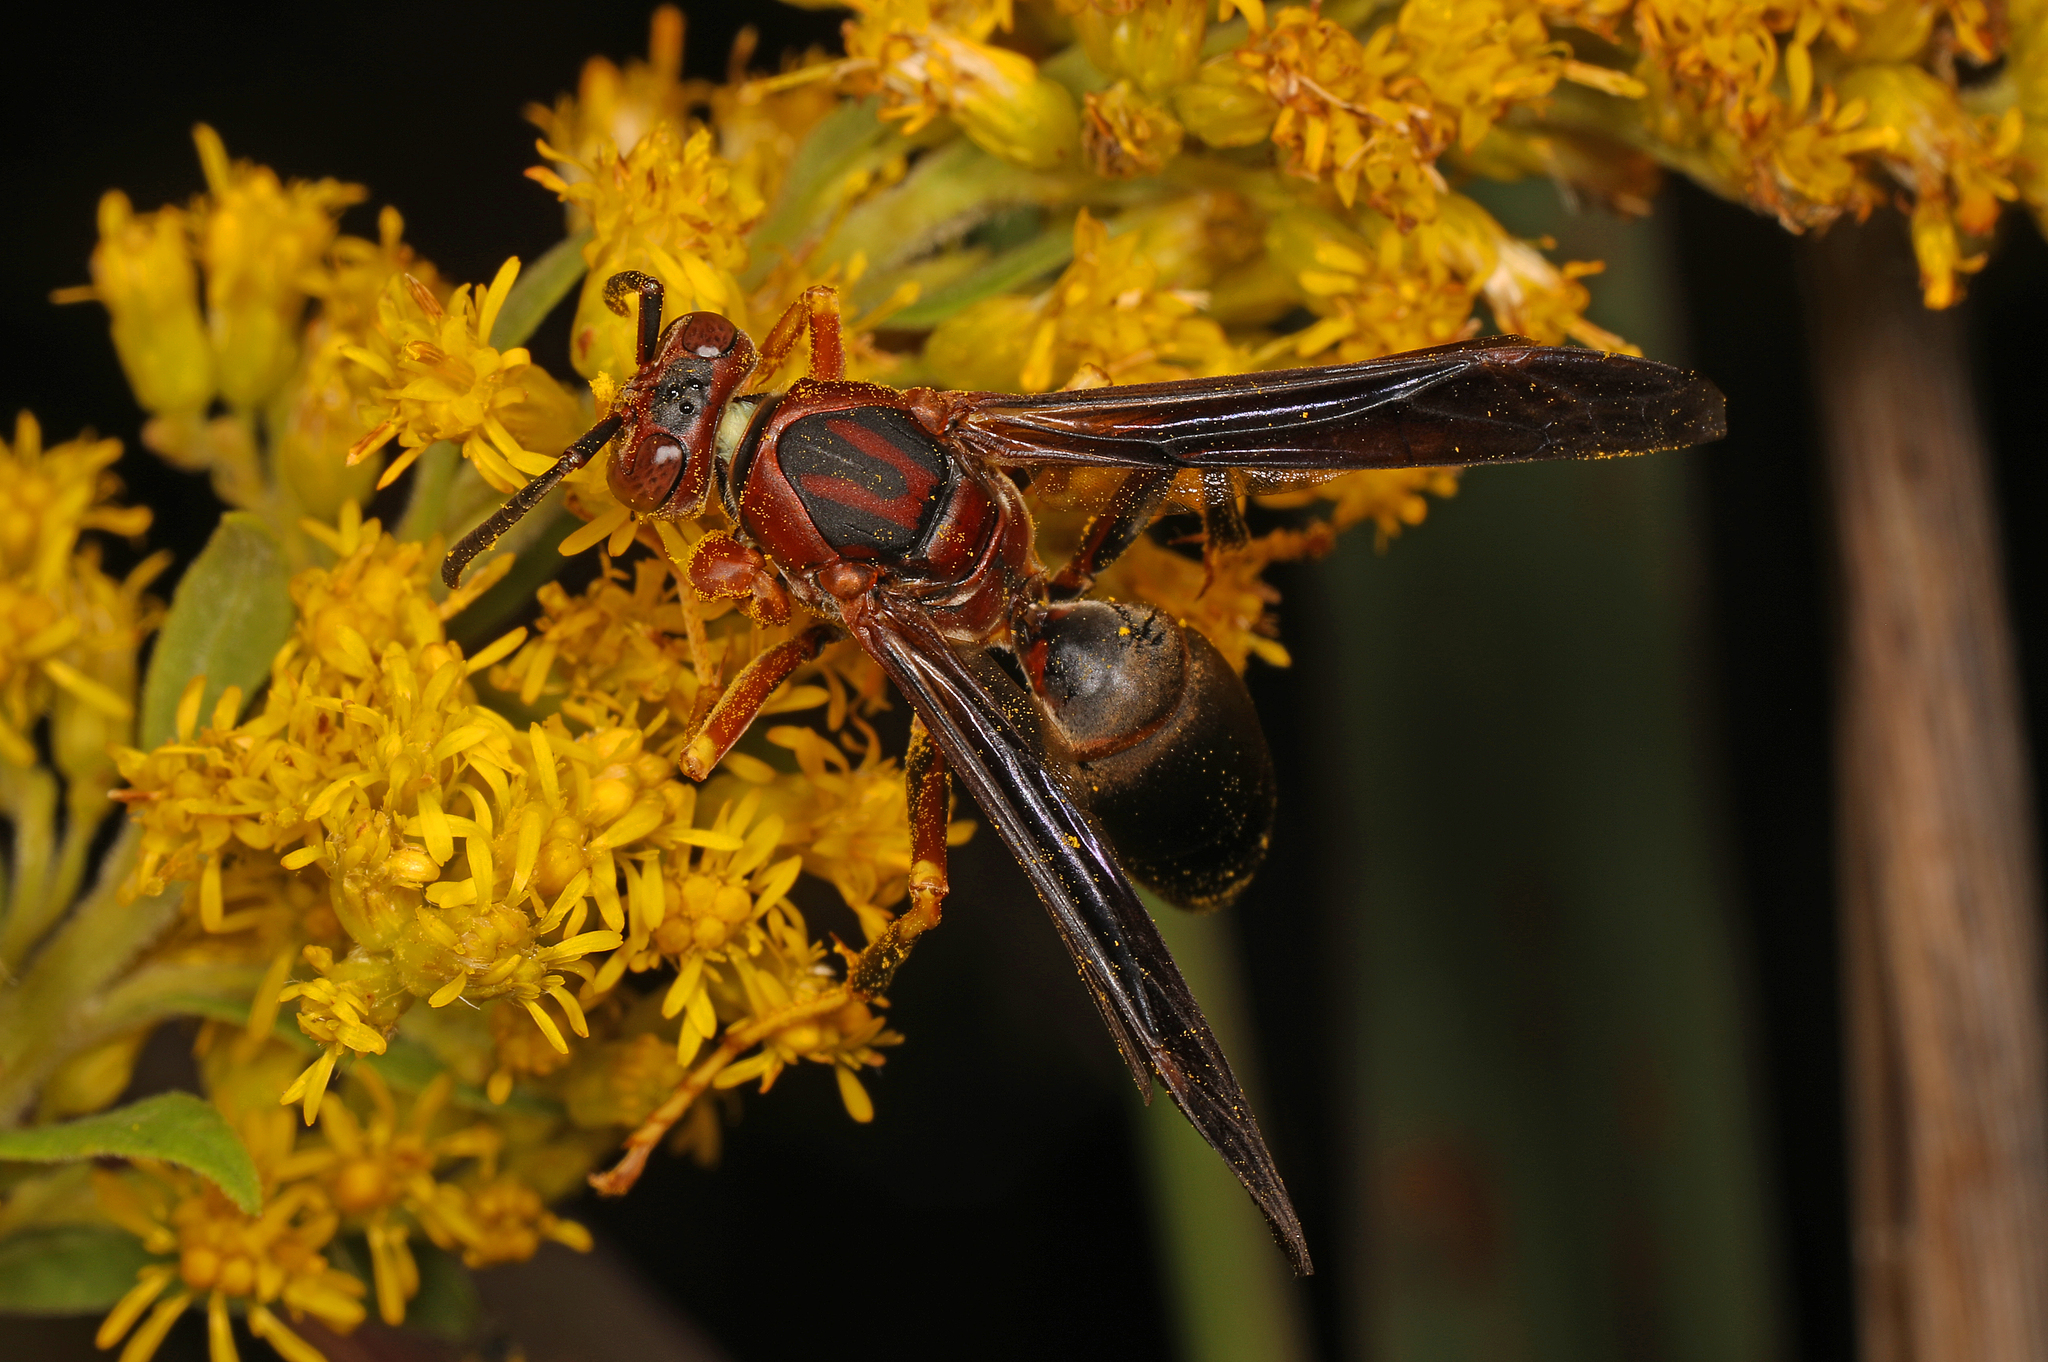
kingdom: Animalia
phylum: Arthropoda
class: Insecta
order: Hymenoptera
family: Eumenidae
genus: Polistes
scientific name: Polistes metricus
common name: Metric paper wasp
